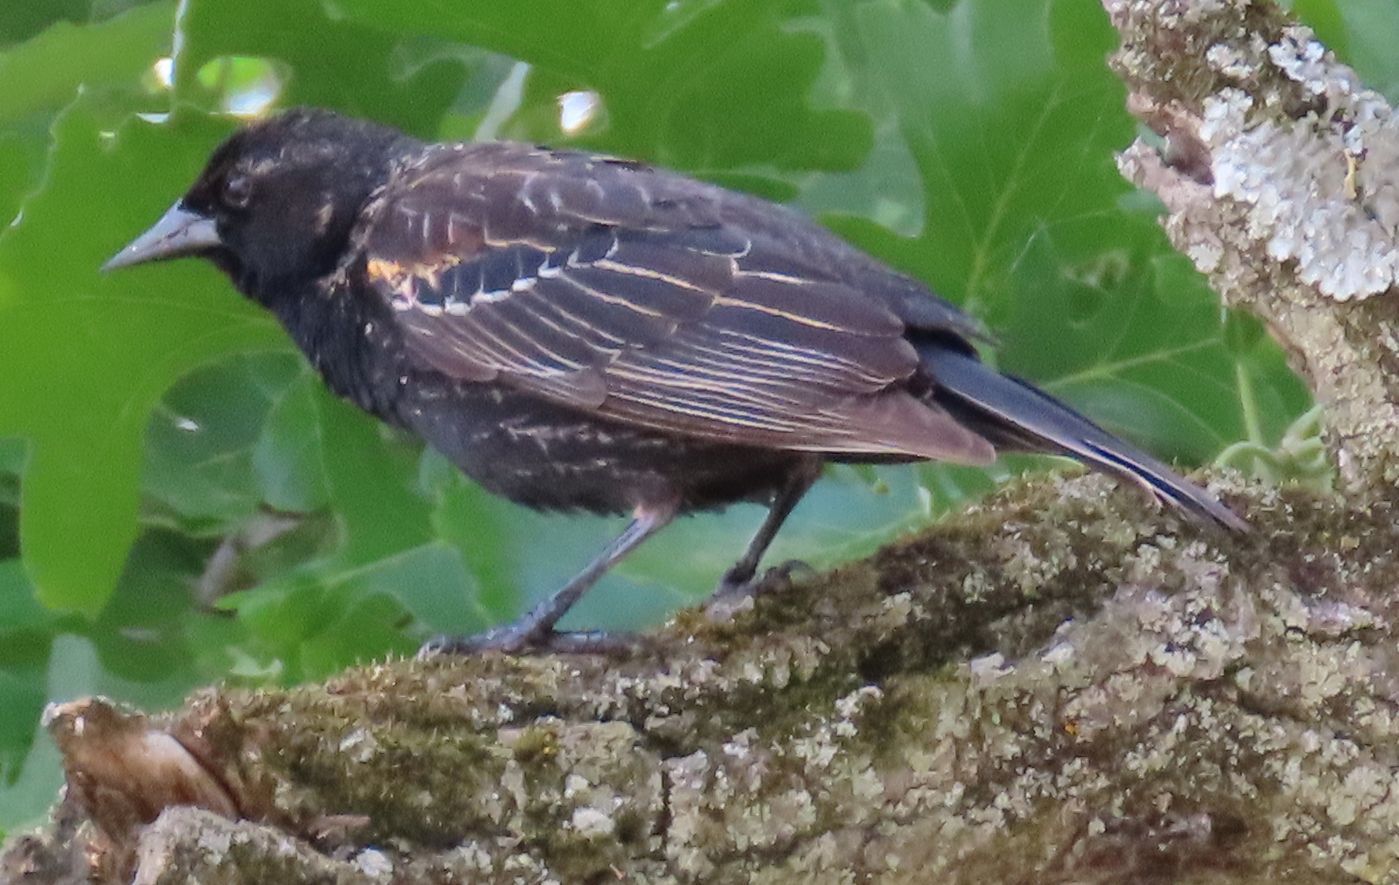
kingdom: Animalia
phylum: Chordata
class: Aves
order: Passeriformes
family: Icteridae
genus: Agelaius
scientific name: Agelaius phoeniceus
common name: Red-winged blackbird
